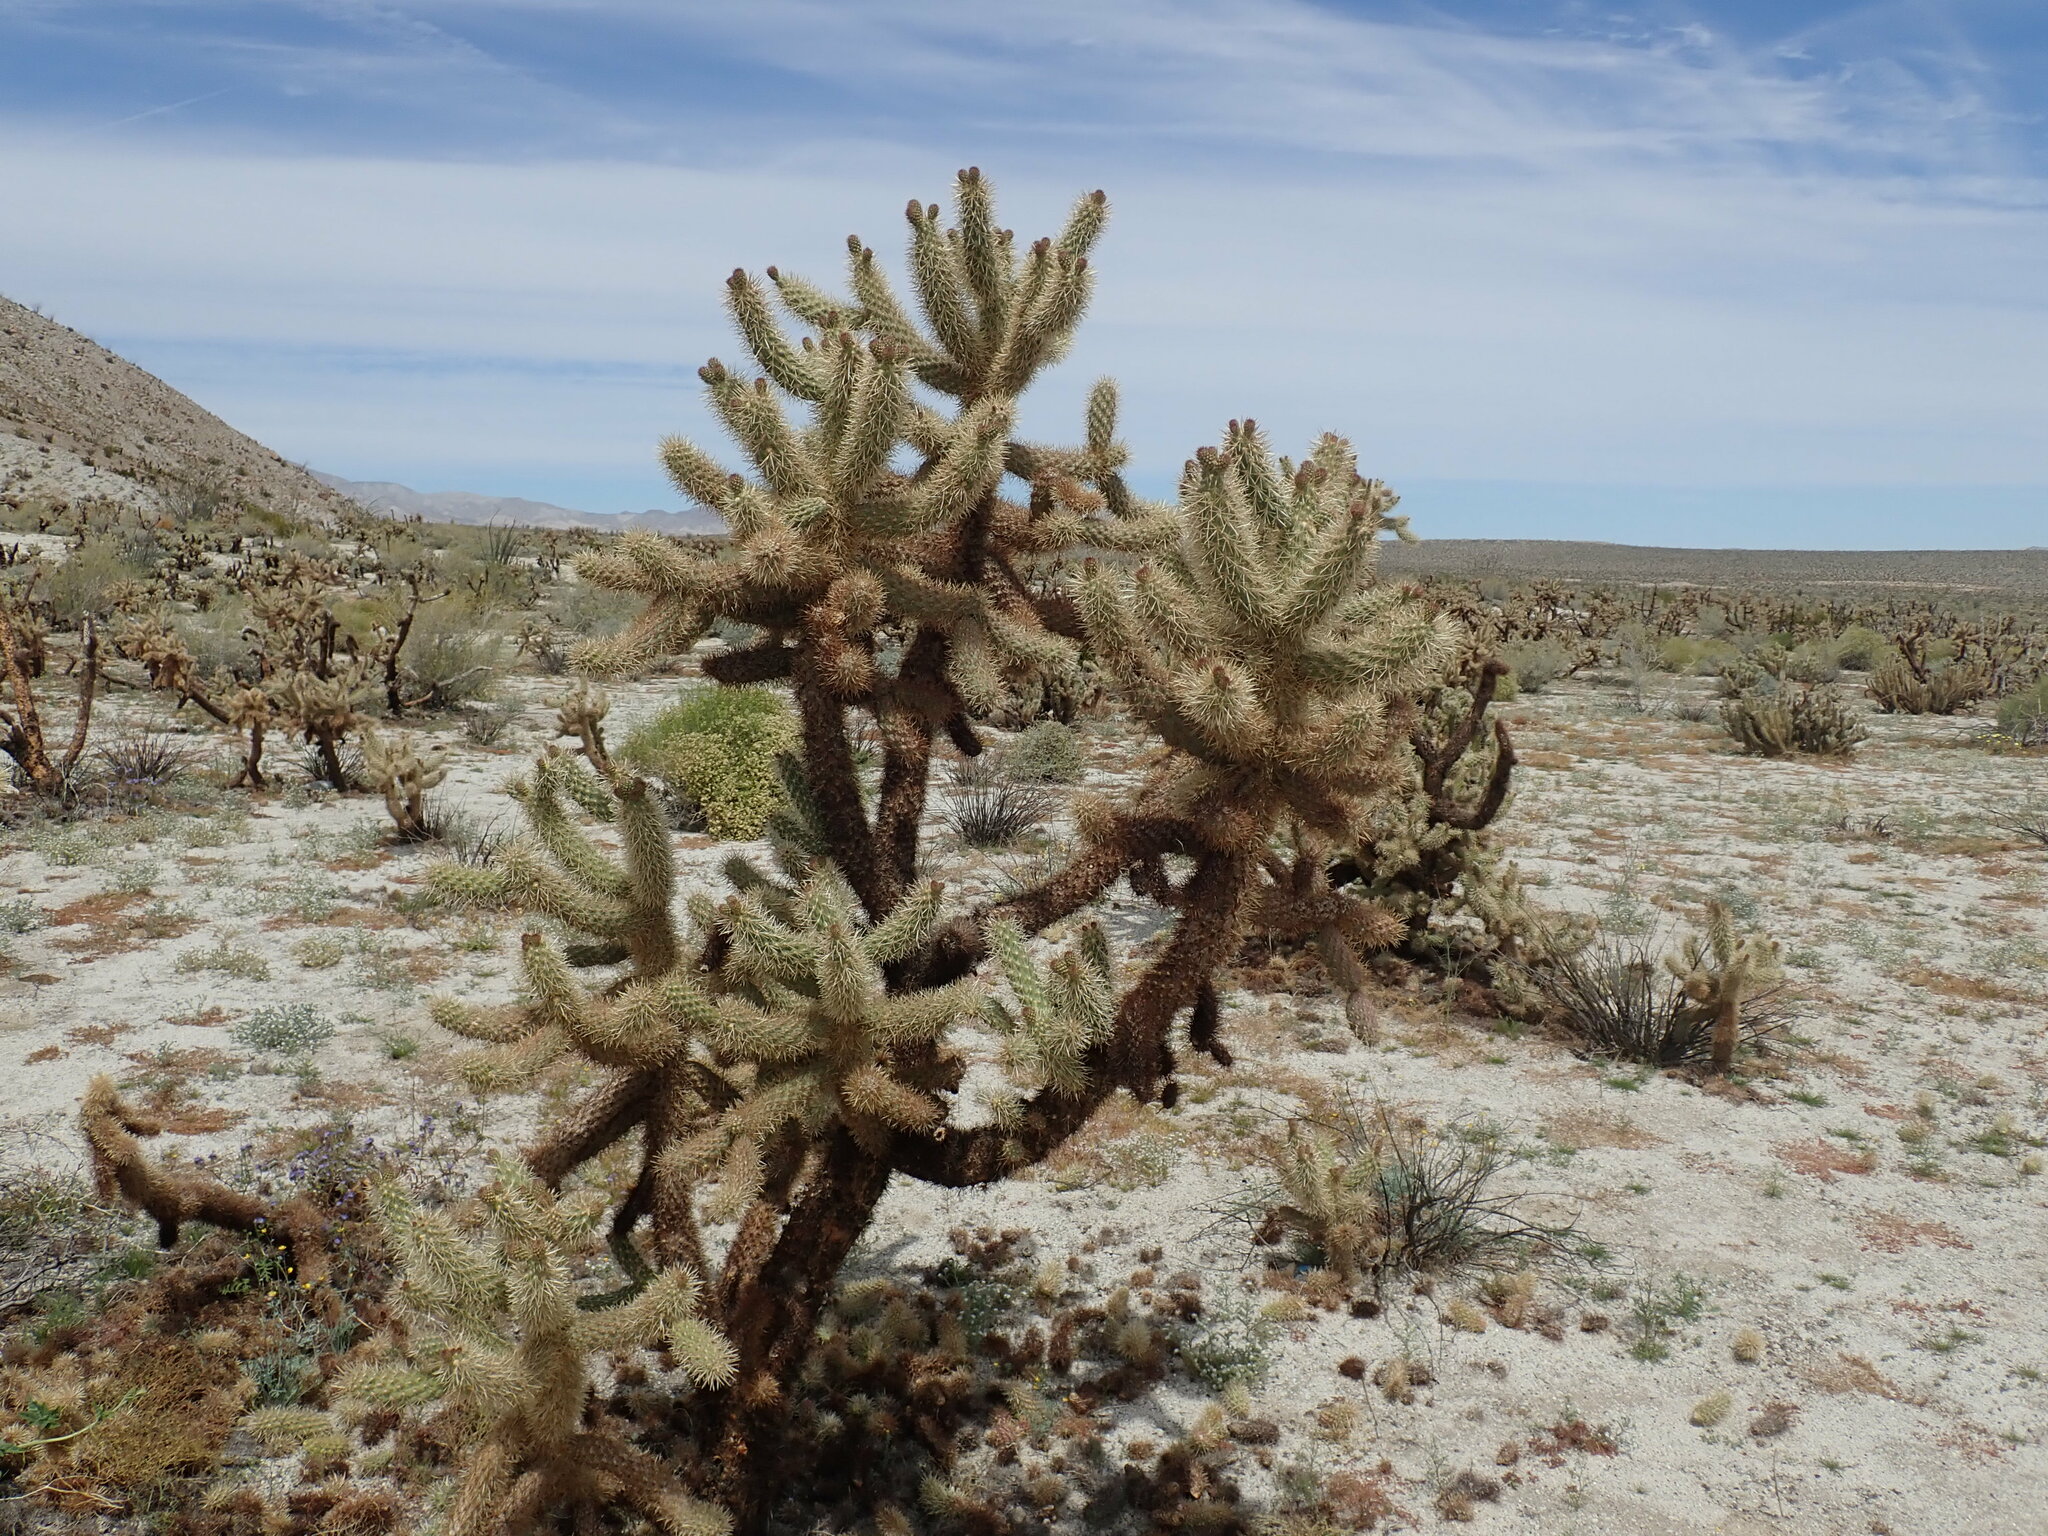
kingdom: Plantae
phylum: Tracheophyta
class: Magnoliopsida
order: Caryophyllales
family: Cactaceae
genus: Cylindropuntia
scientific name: Cylindropuntia fosbergii
